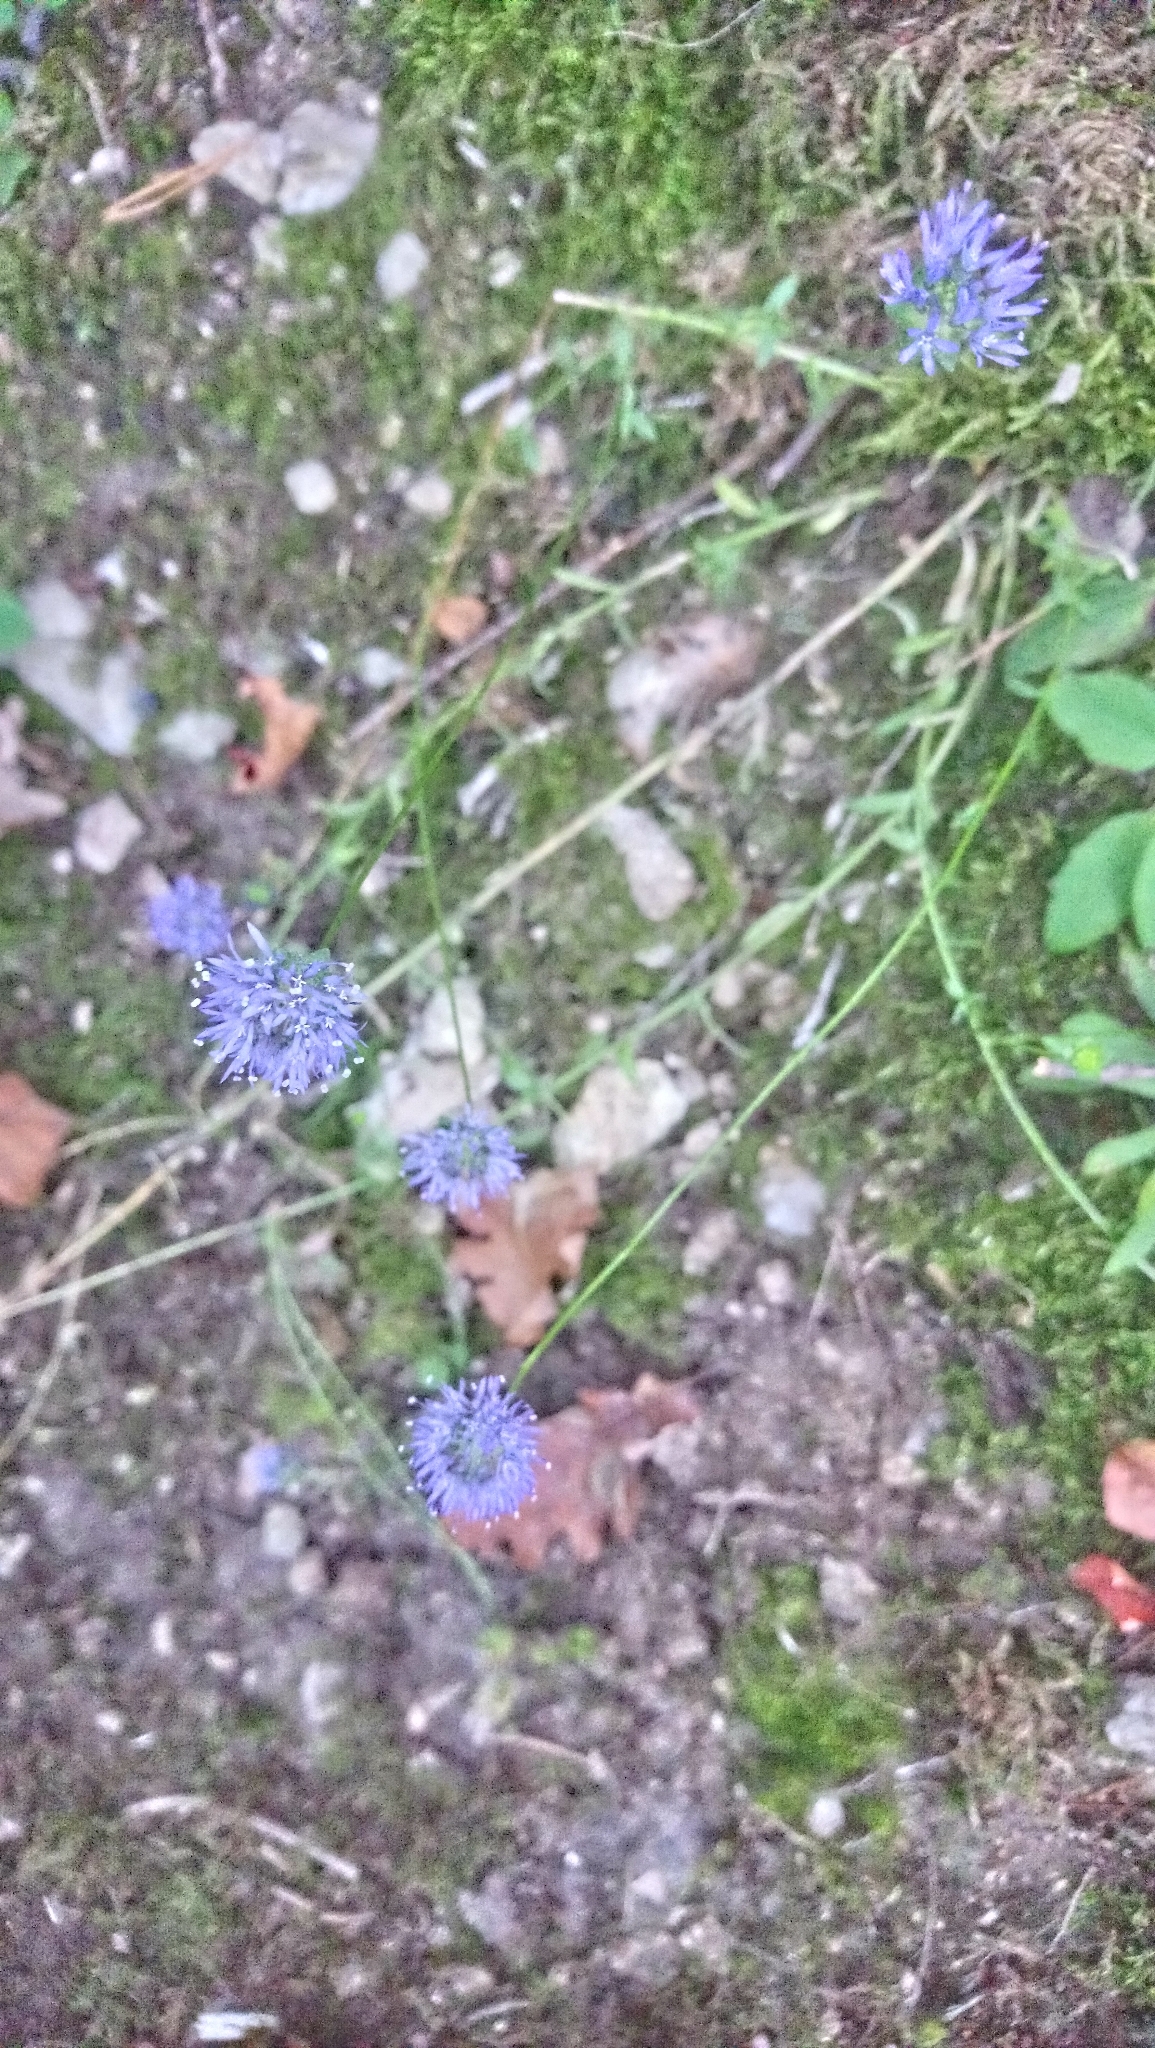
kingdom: Plantae
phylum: Tracheophyta
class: Magnoliopsida
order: Asterales
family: Campanulaceae
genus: Jasione
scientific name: Jasione montana
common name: Sheep's-bit
